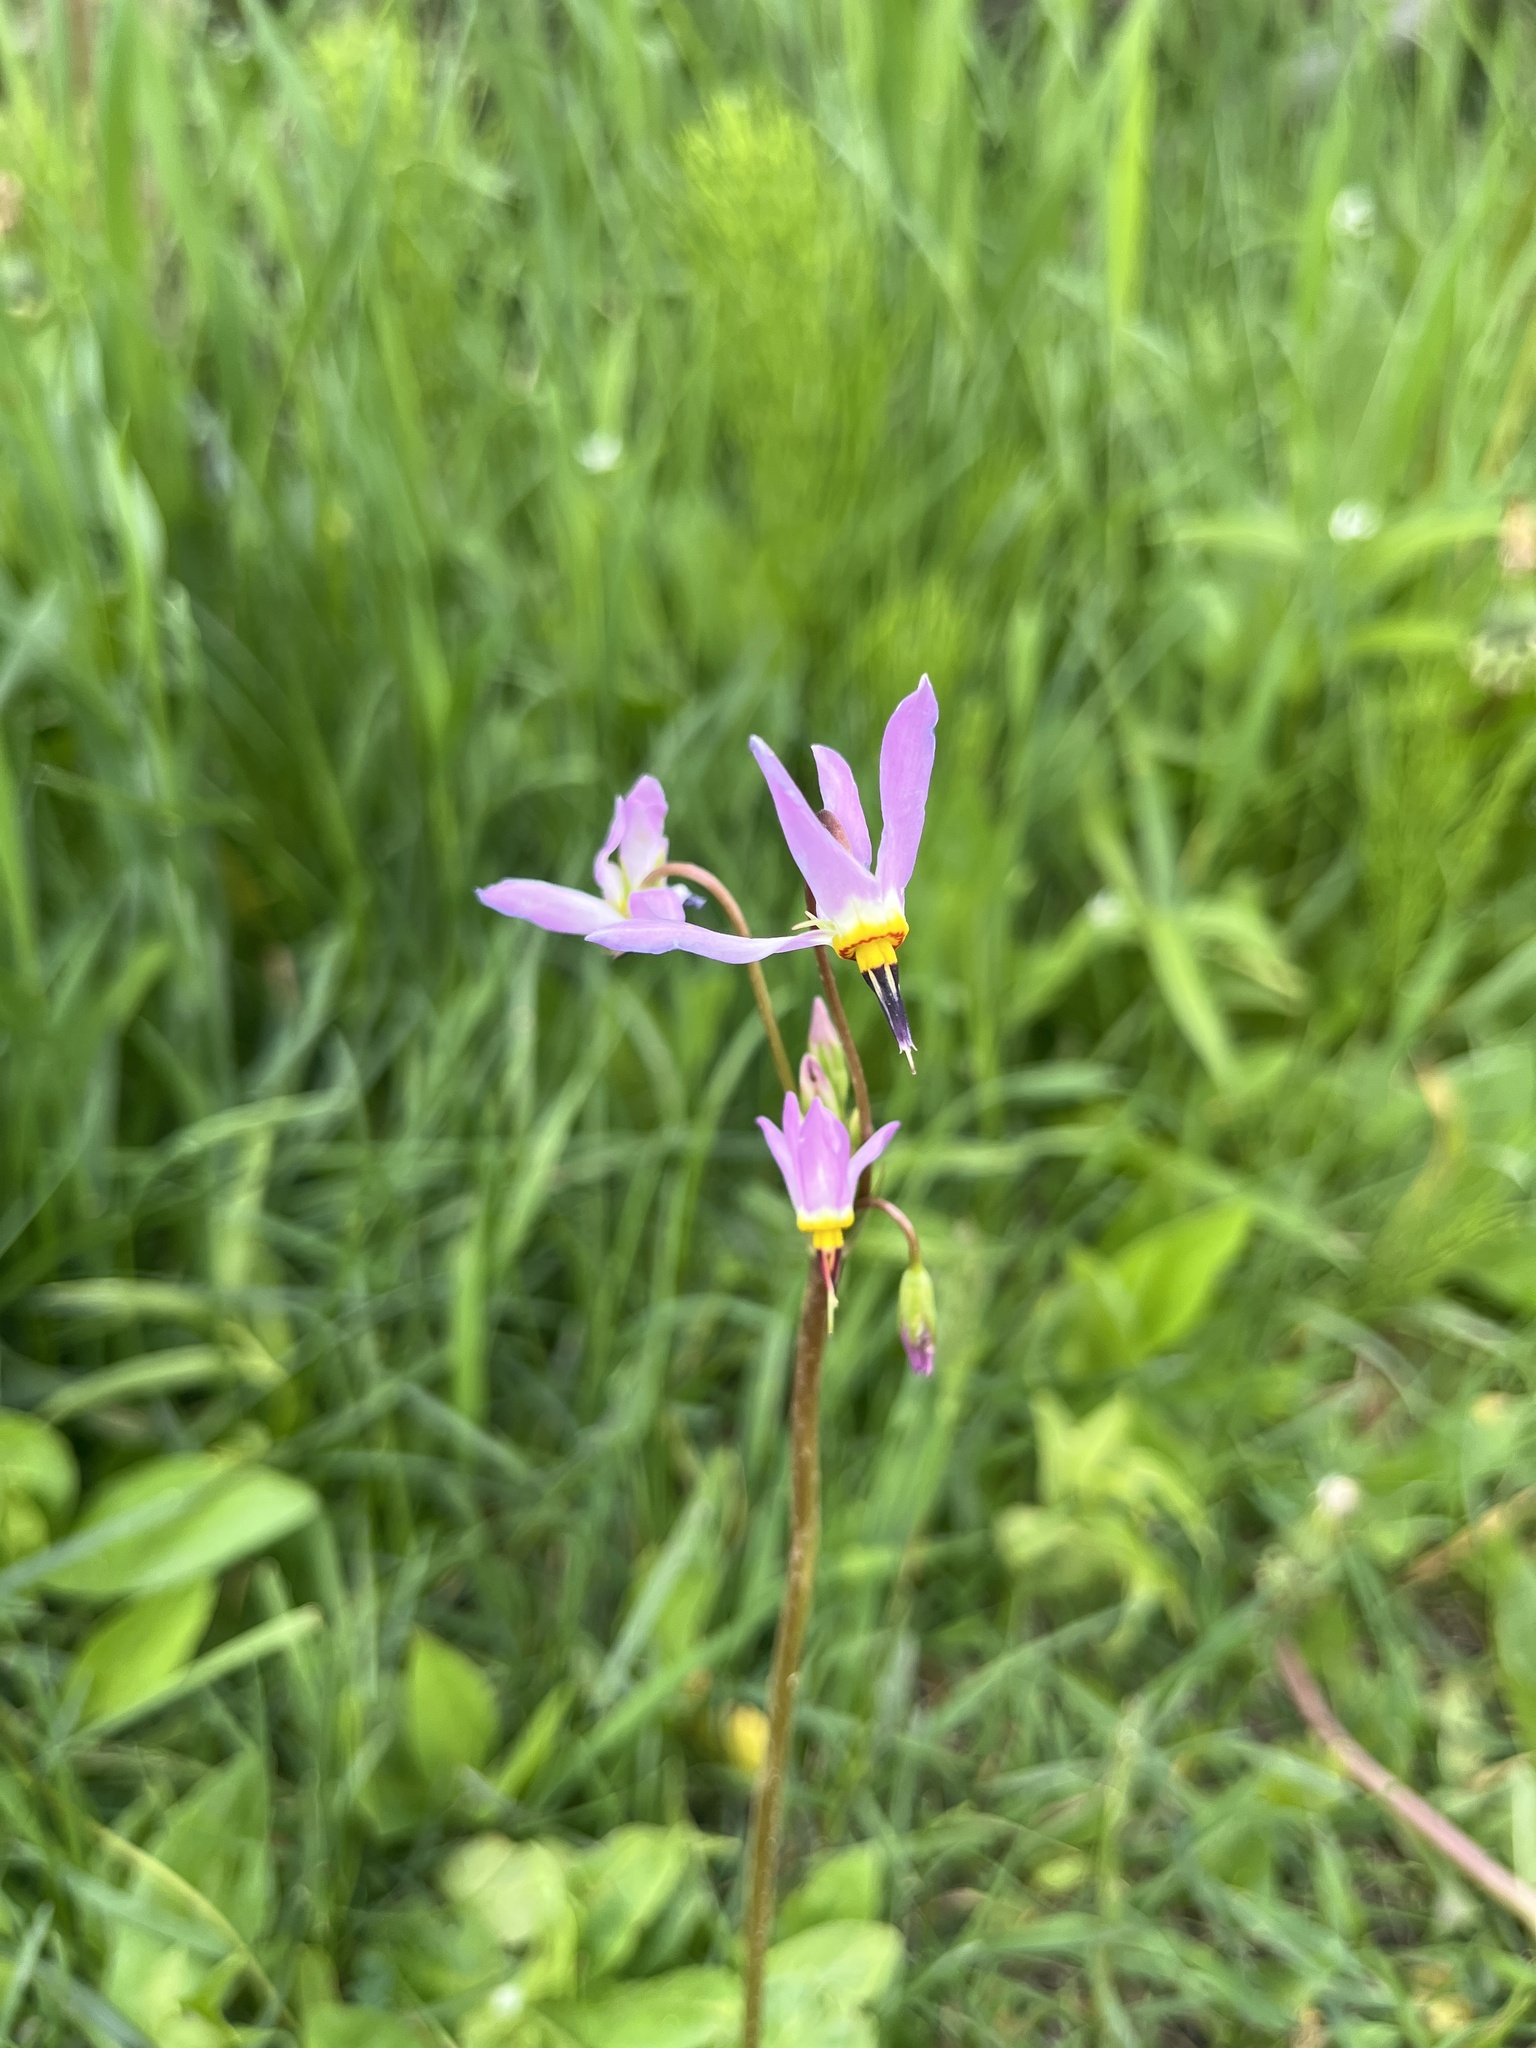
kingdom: Plantae
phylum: Tracheophyta
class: Magnoliopsida
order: Ericales
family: Primulaceae
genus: Dodecatheon
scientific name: Dodecatheon pulchellum
